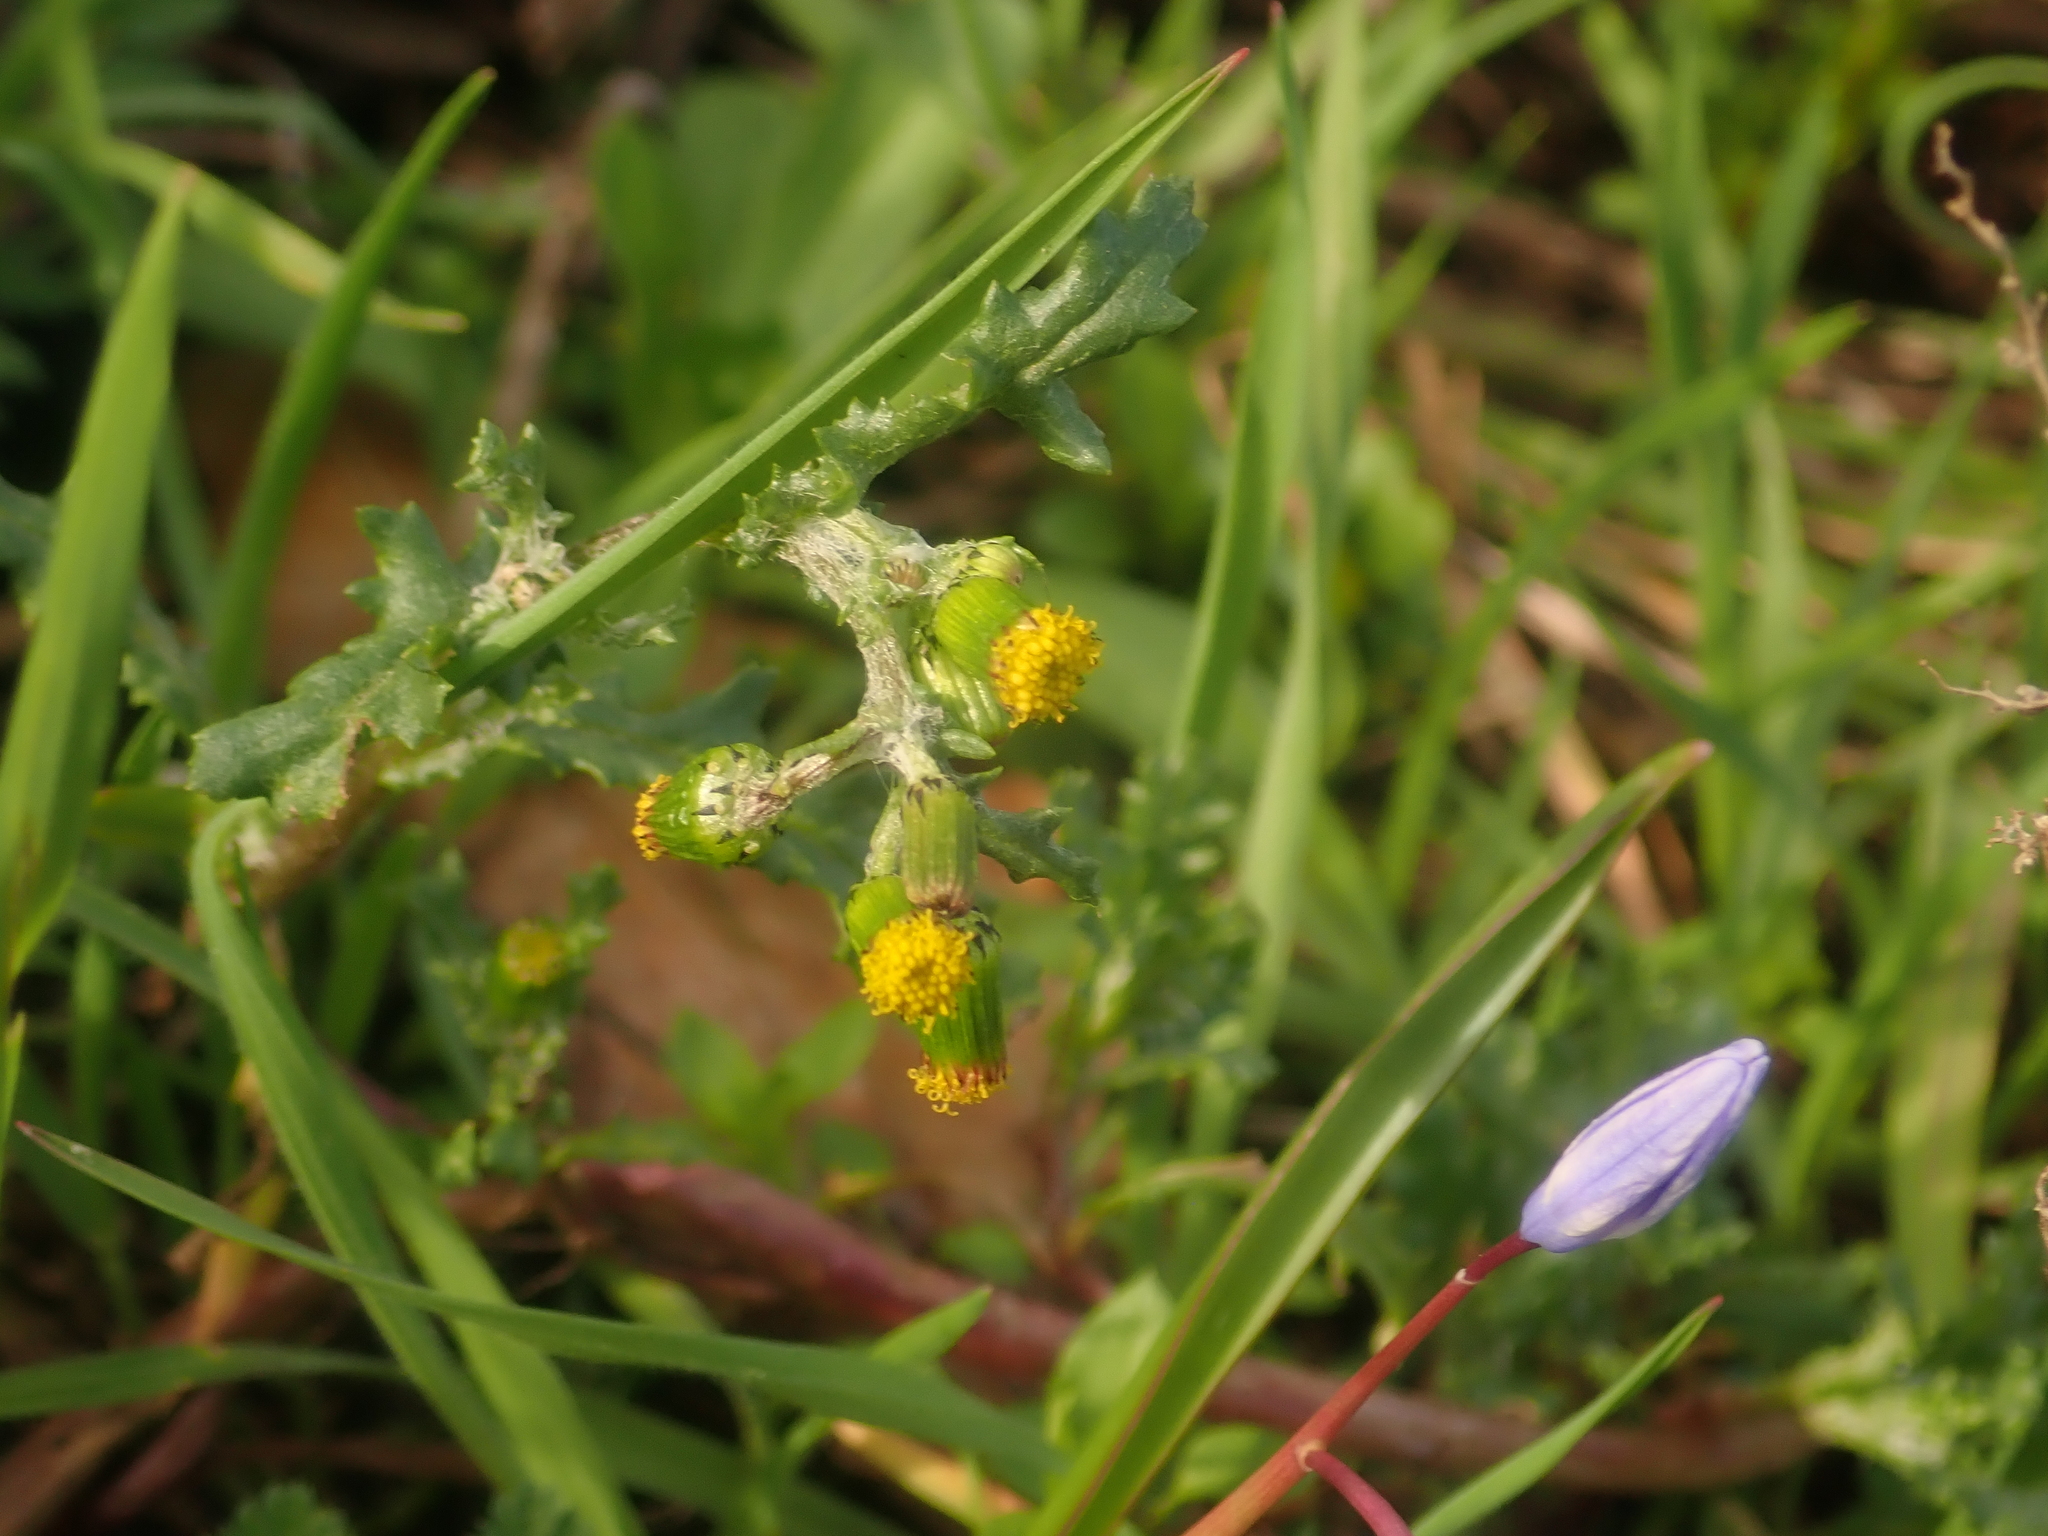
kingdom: Plantae
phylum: Tracheophyta
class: Magnoliopsida
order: Asterales
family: Asteraceae
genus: Senecio
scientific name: Senecio vulgaris
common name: Old-man-in-the-spring
